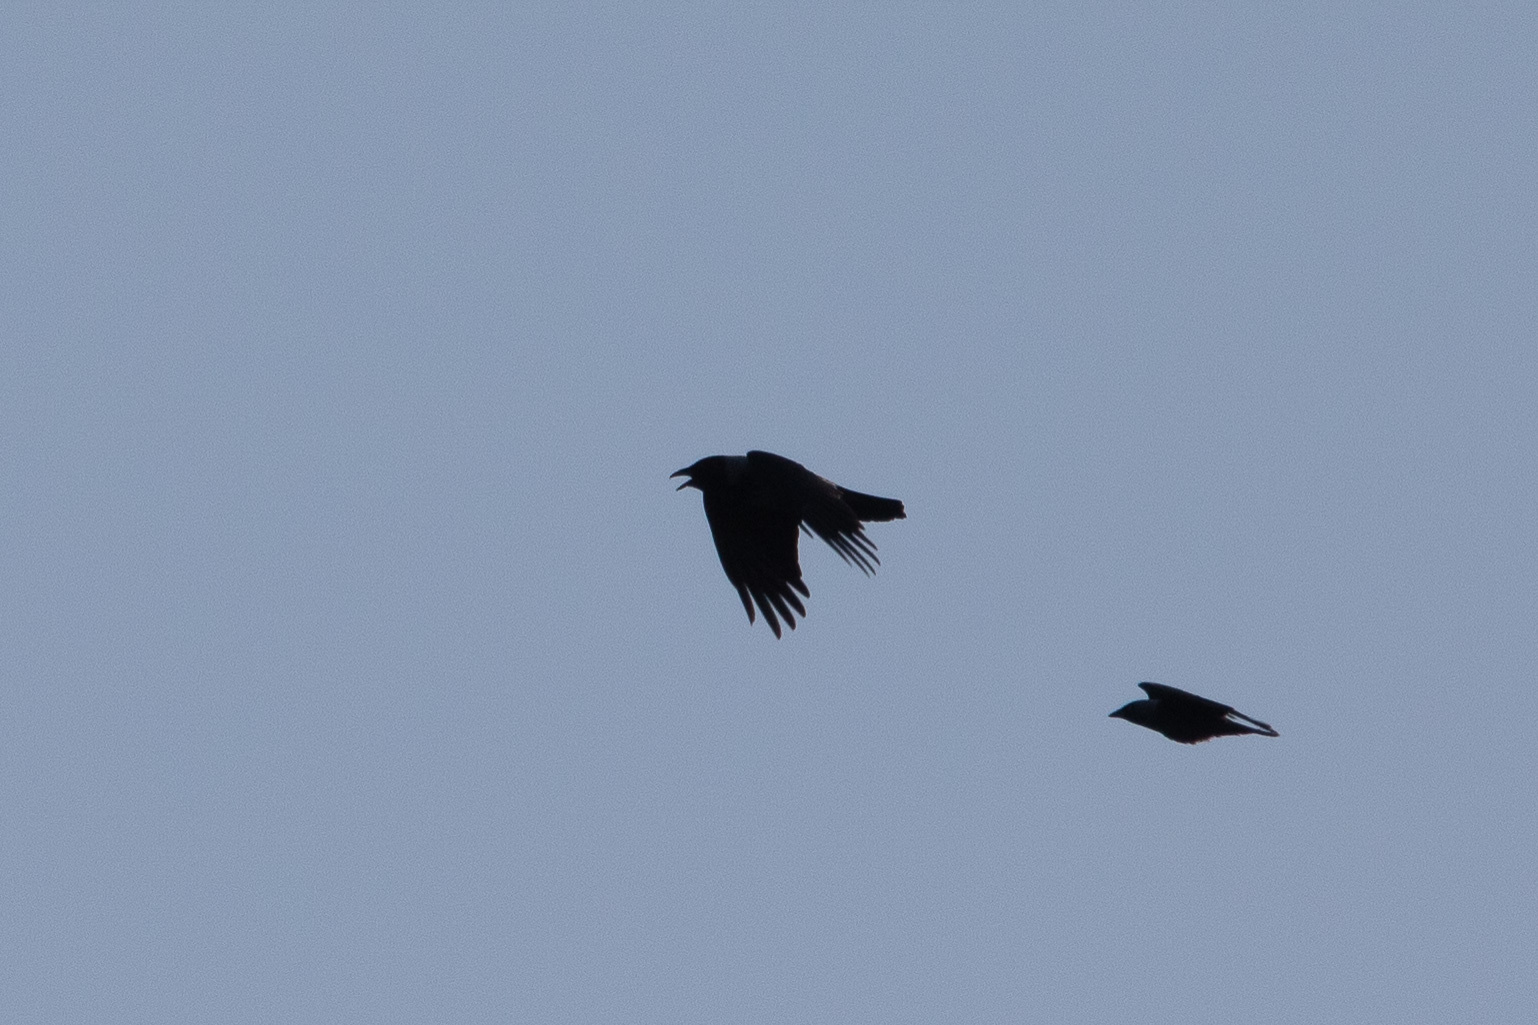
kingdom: Animalia
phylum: Chordata
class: Aves
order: Passeriformes
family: Corvidae
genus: Corvus
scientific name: Corvus corax
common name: Common raven
